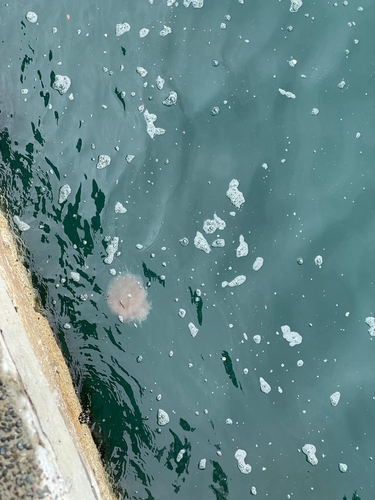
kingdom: Animalia
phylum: Cnidaria
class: Scyphozoa
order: Semaeostomeae
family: Cyaneidae
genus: Cyanea
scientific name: Cyanea nozakii
